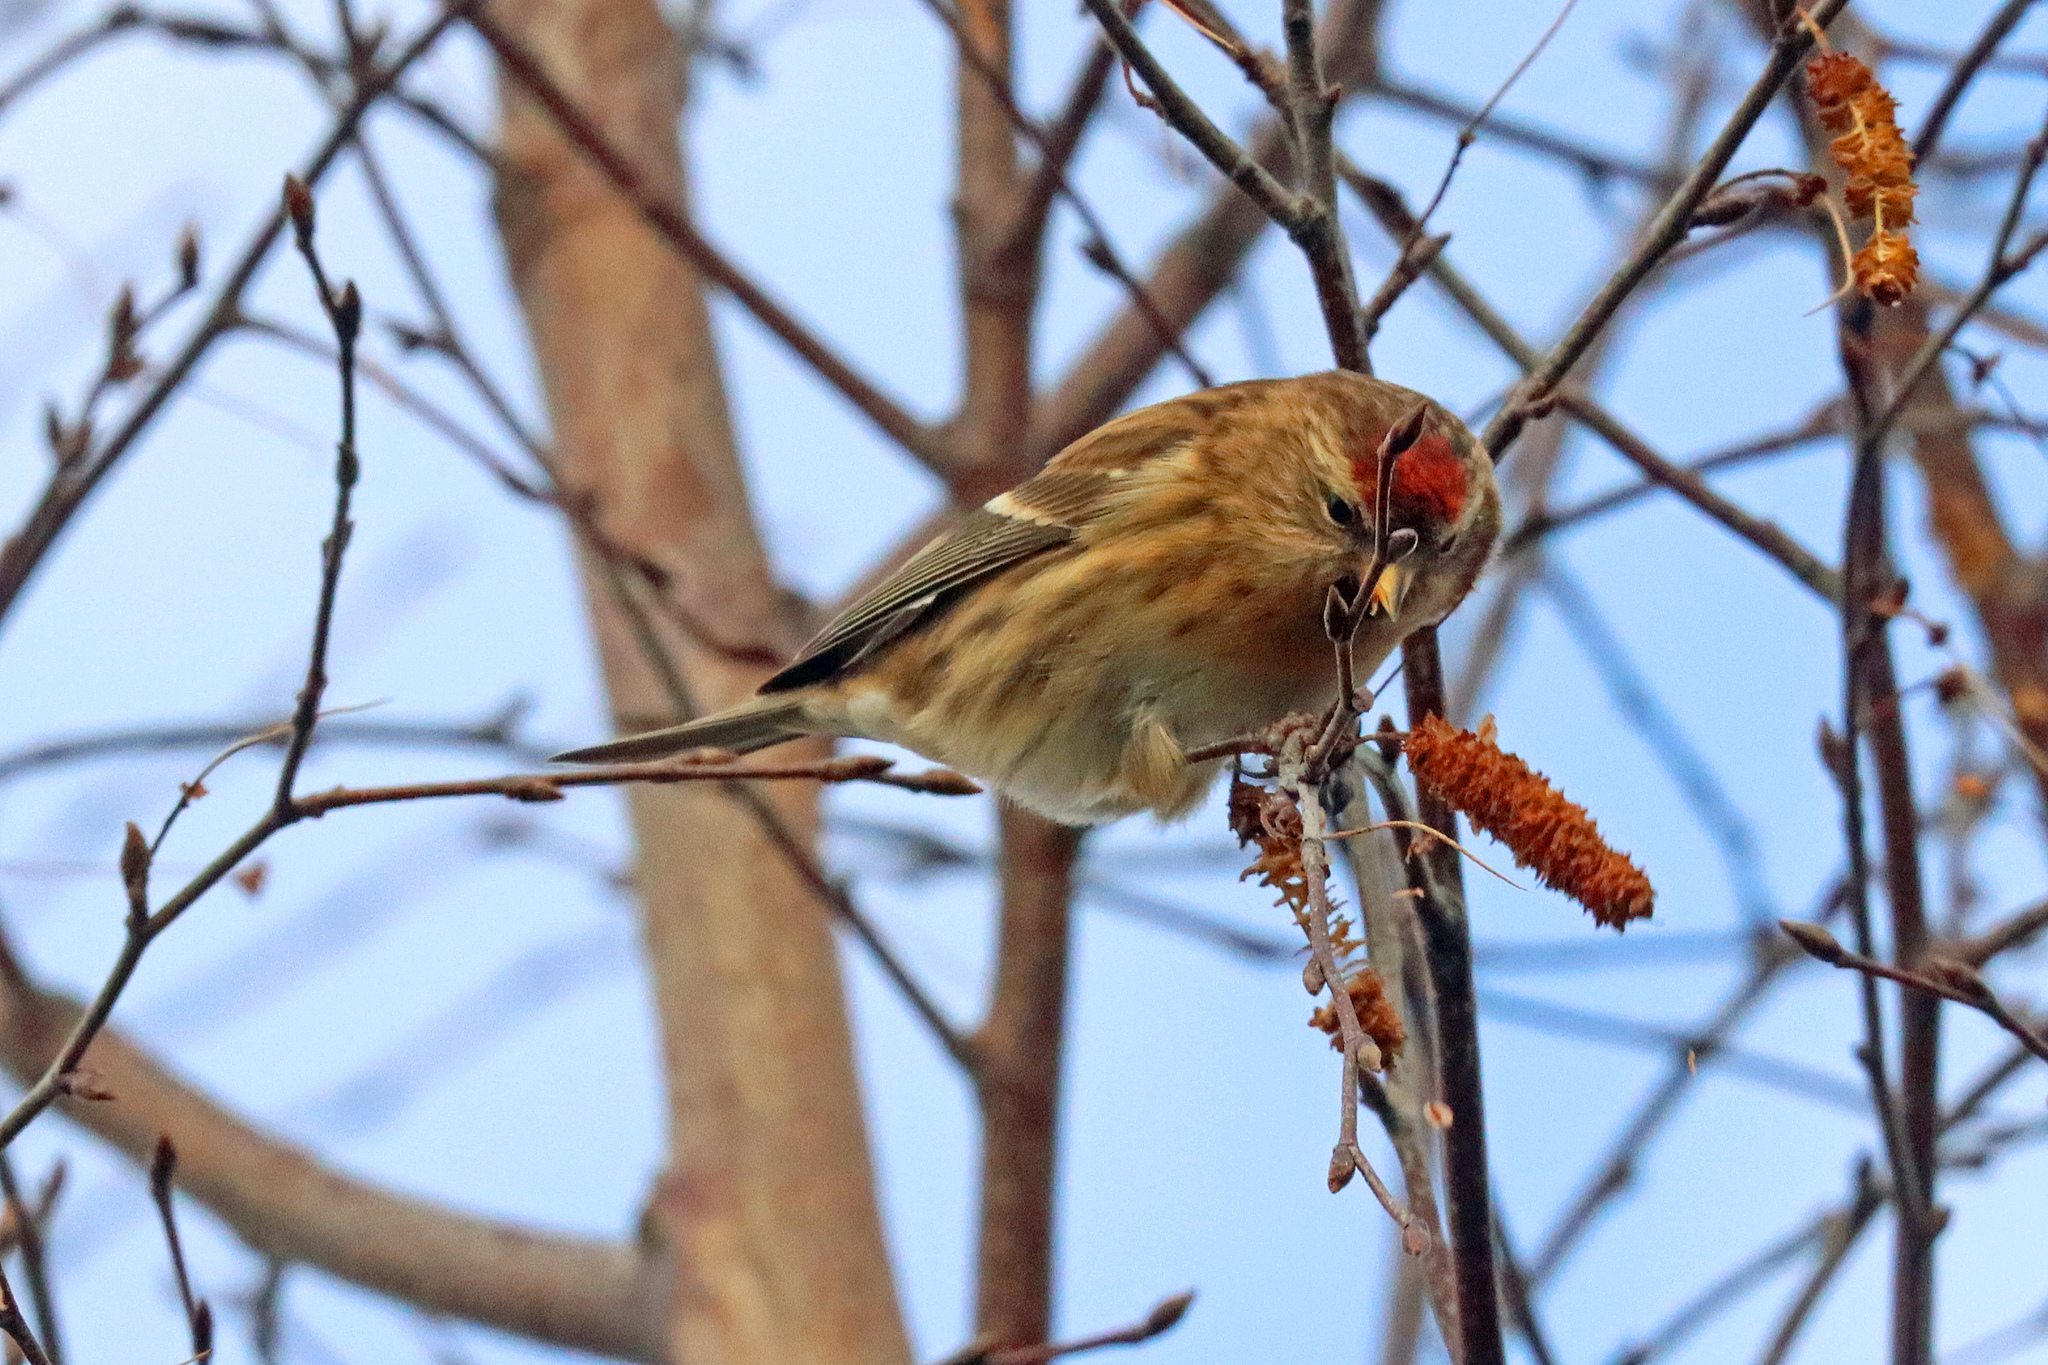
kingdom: Animalia
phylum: Chordata
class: Aves
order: Passeriformes
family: Fringillidae
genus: Acanthis
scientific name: Acanthis flammea
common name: Common redpoll
